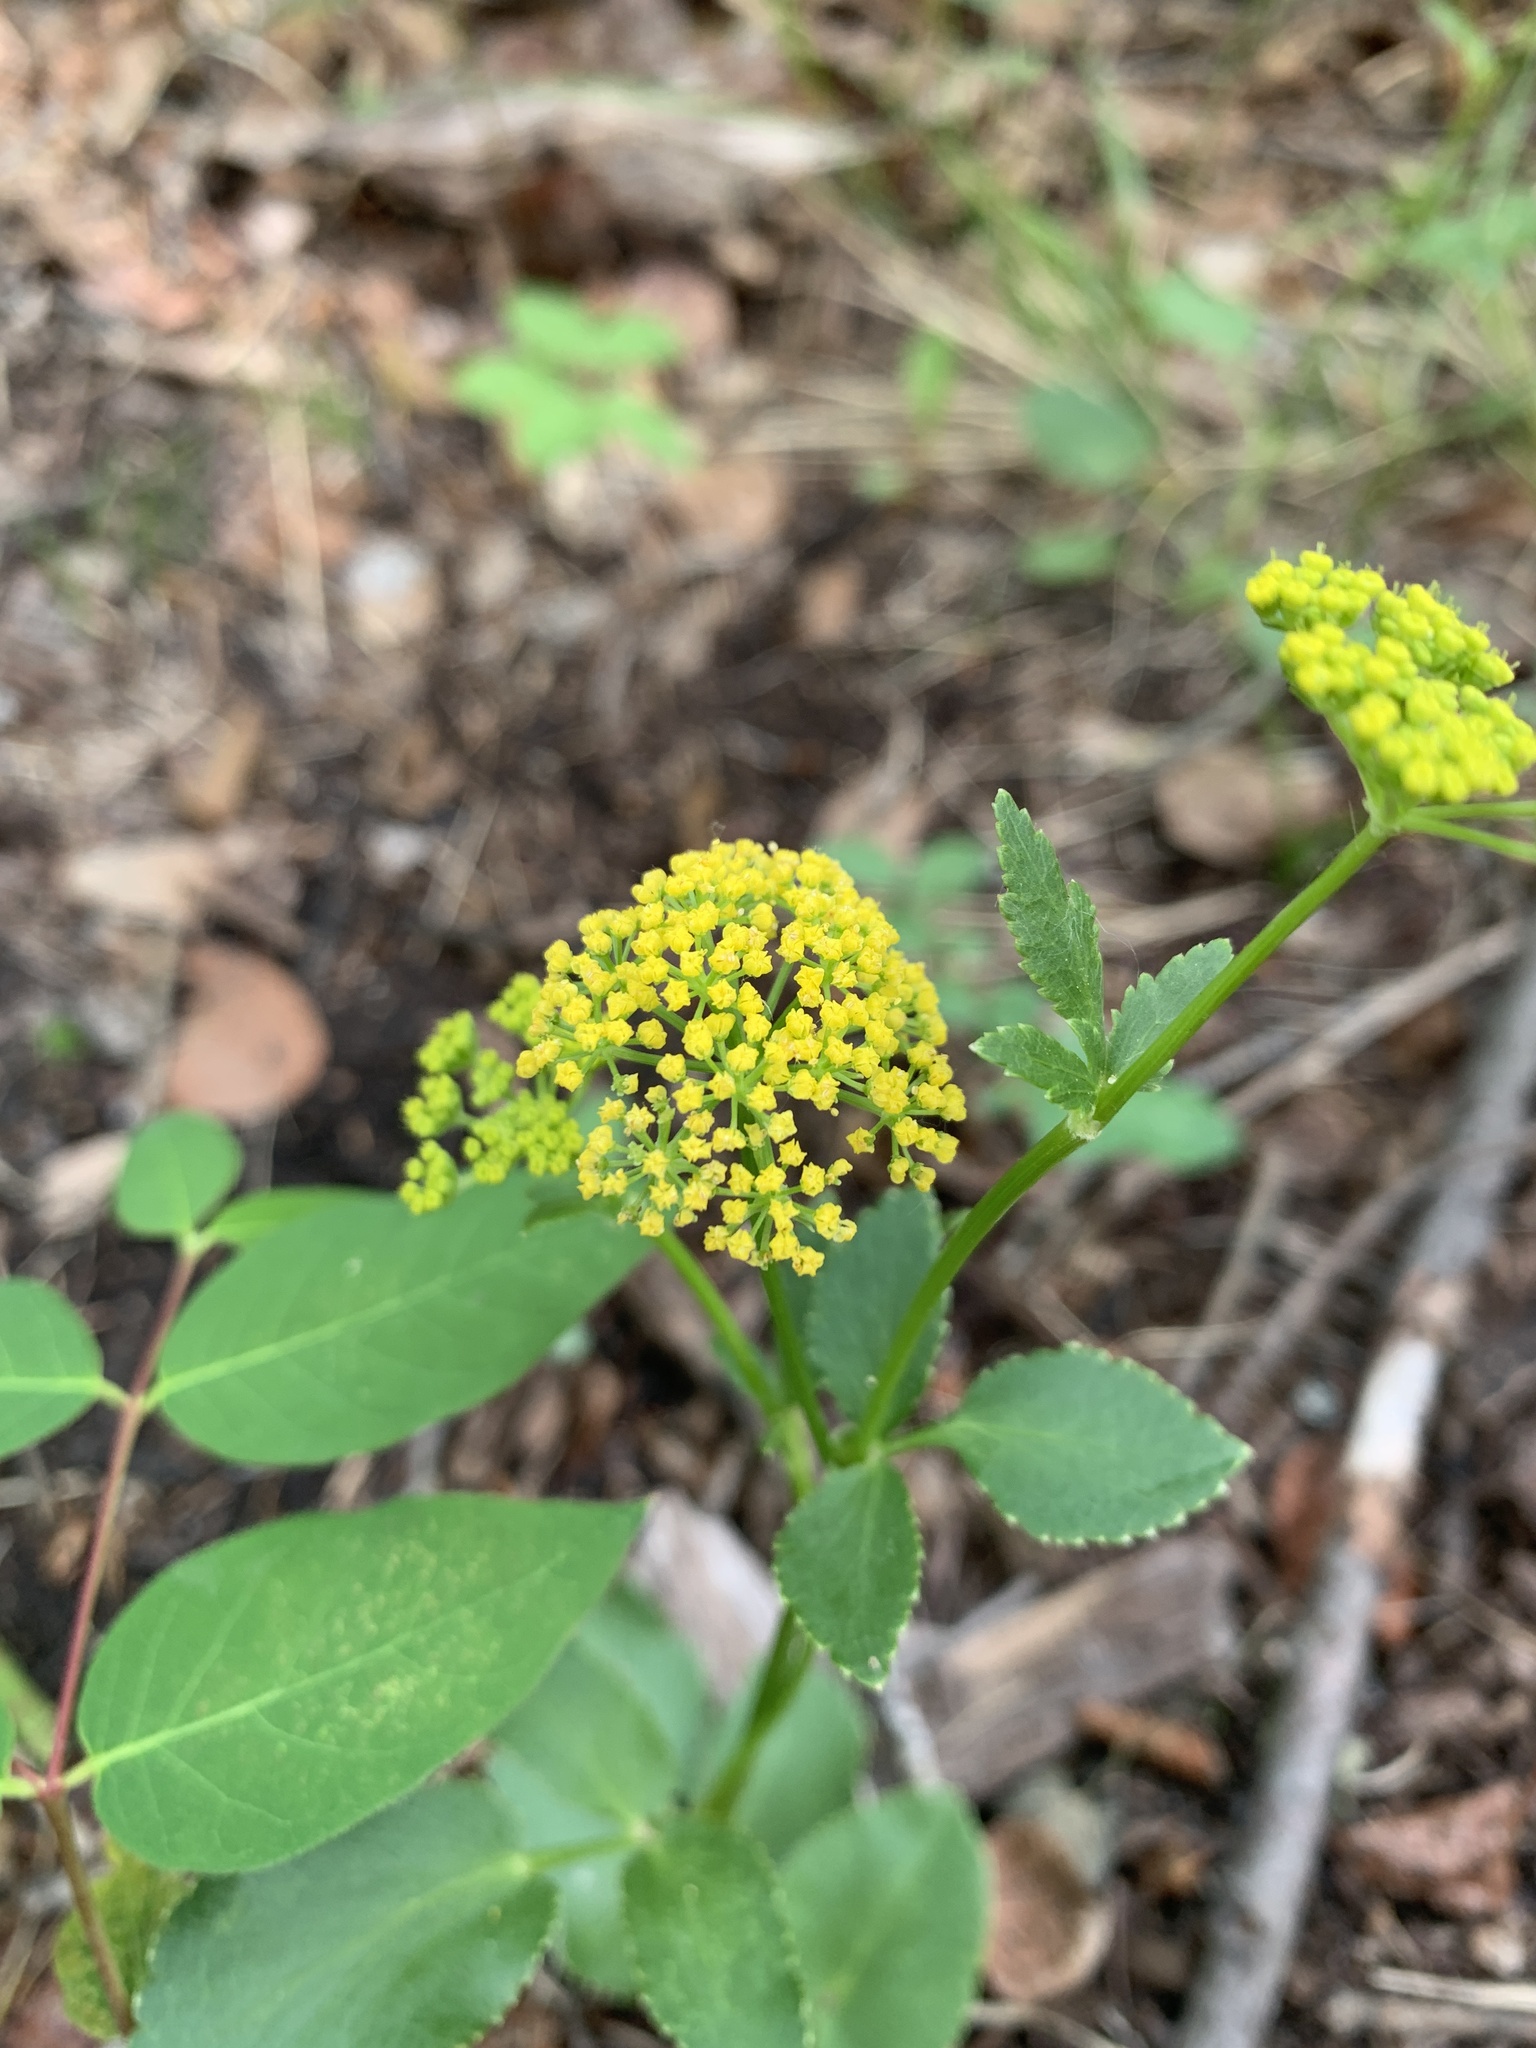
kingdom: Plantae
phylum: Tracheophyta
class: Magnoliopsida
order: Apiales
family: Apiaceae
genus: Zizia
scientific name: Zizia aptera
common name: Heart-leaved alexanders
